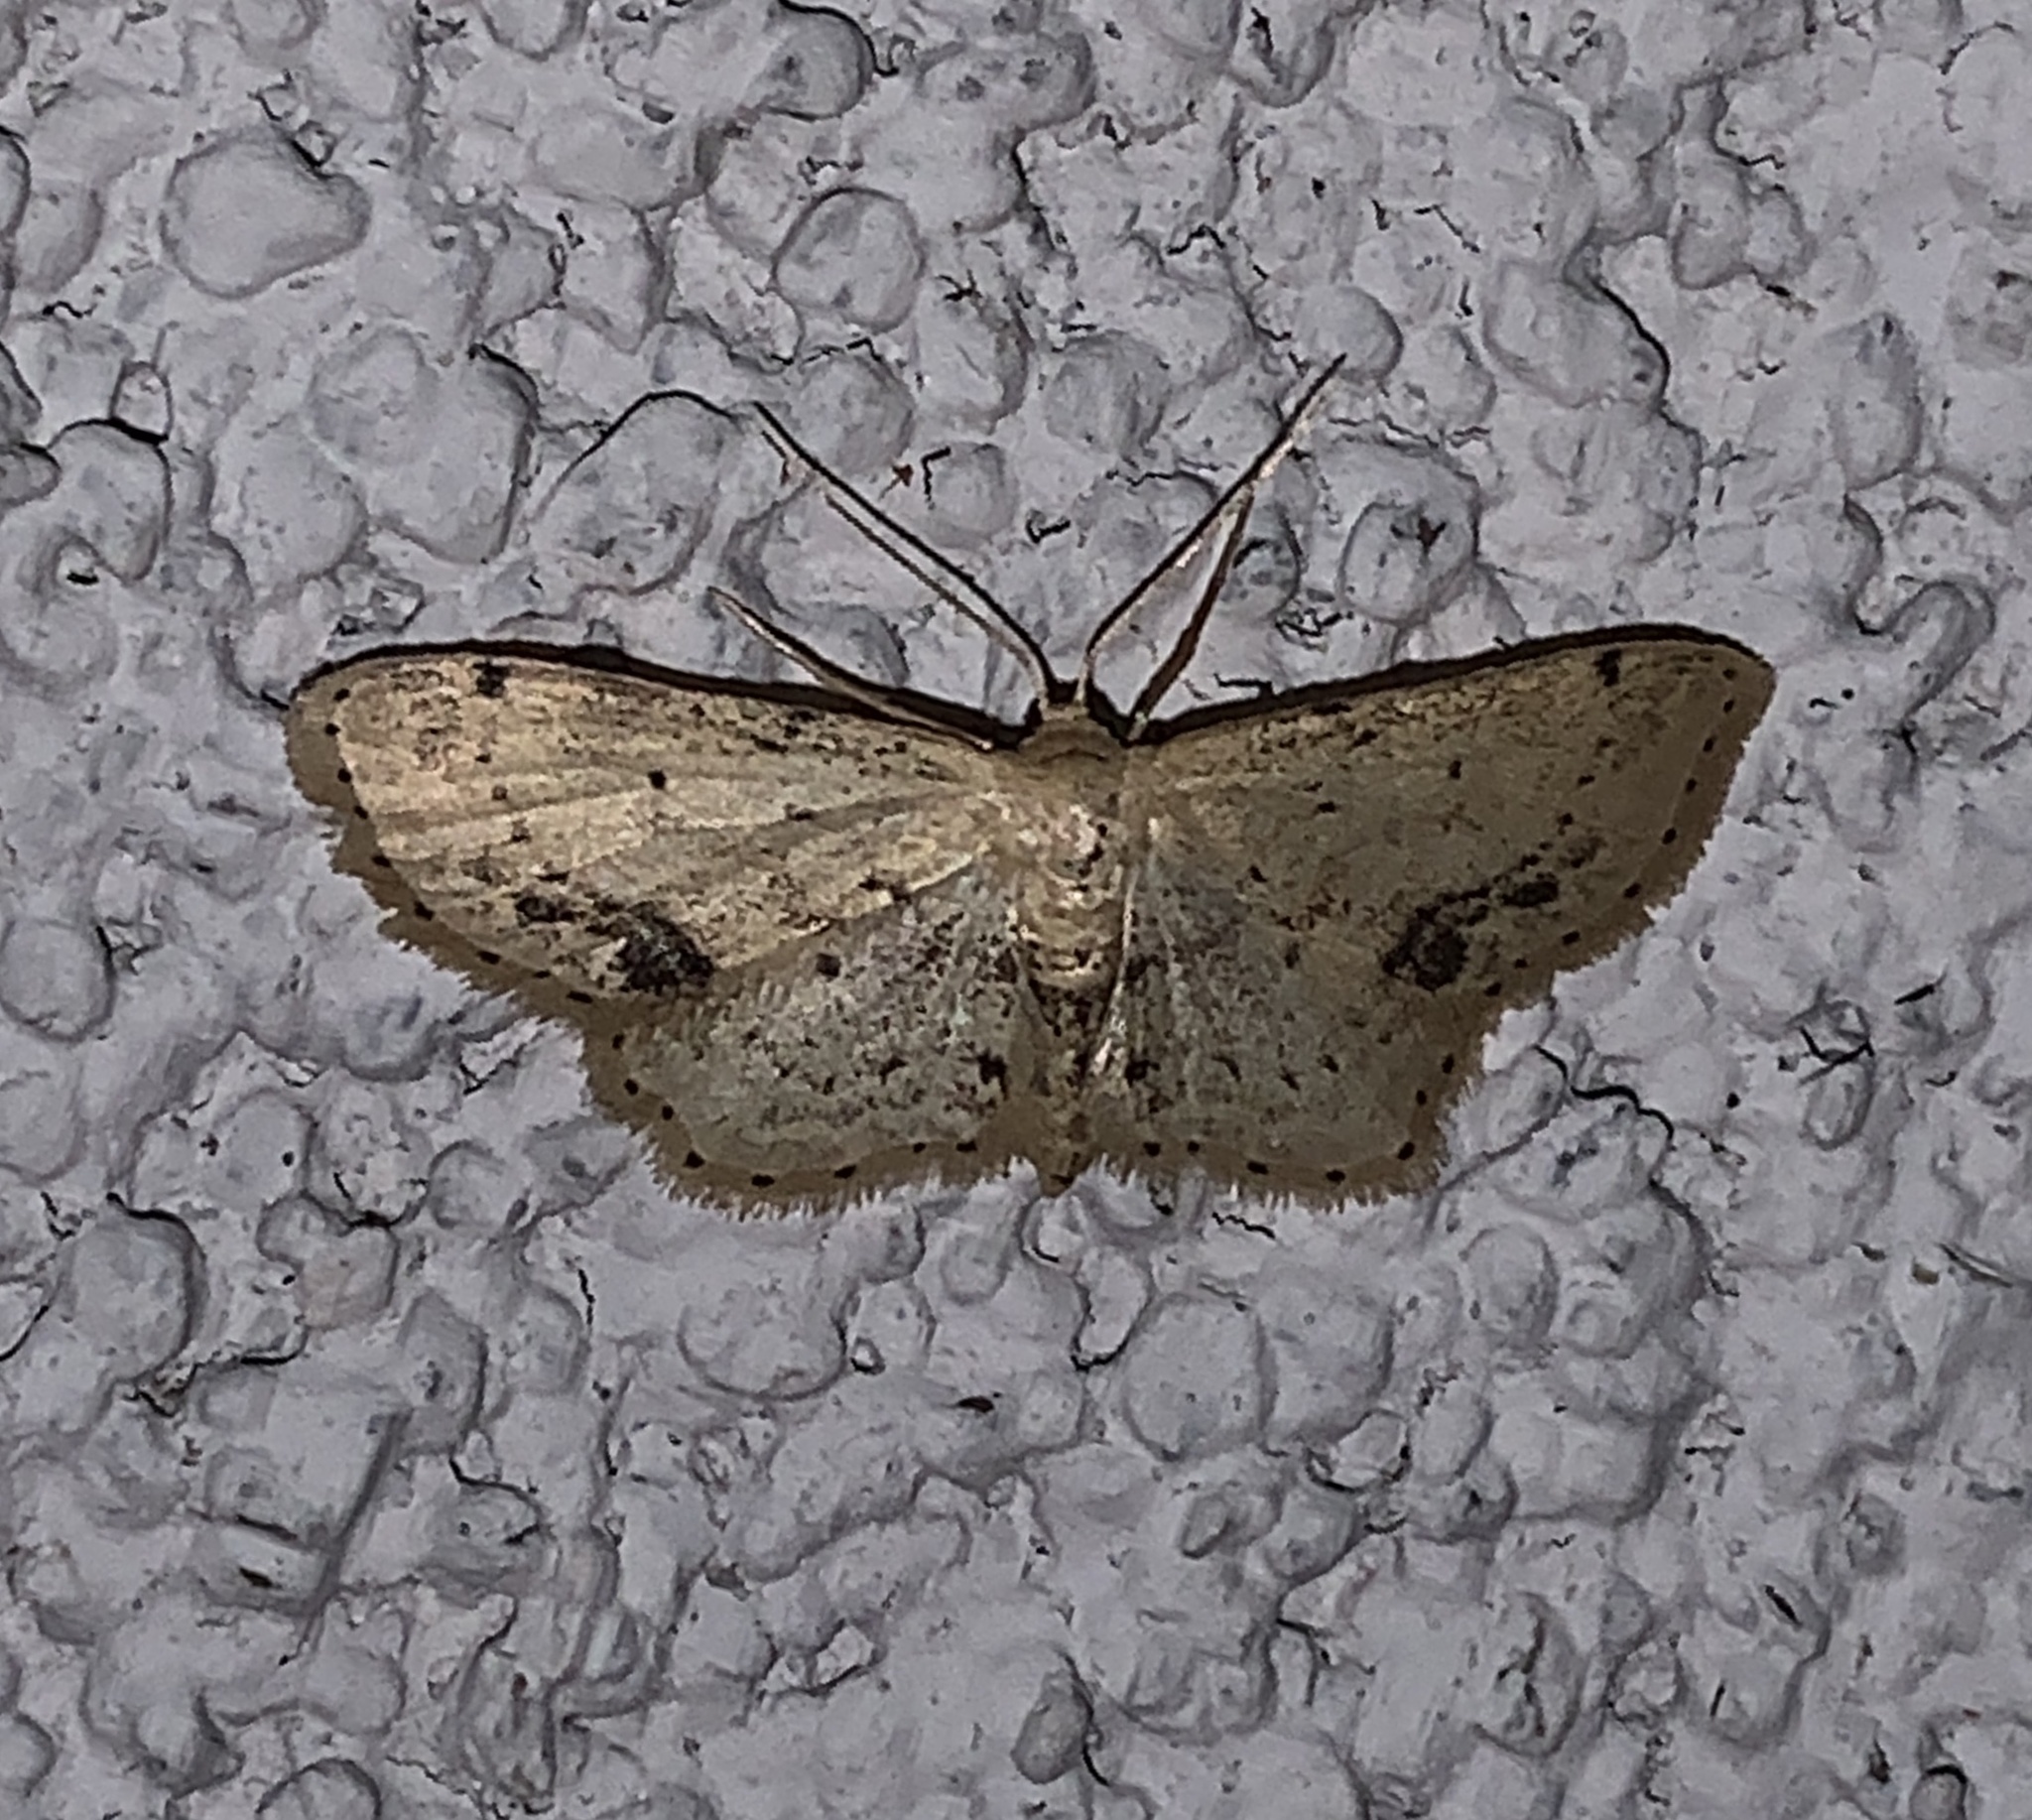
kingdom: Animalia
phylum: Arthropoda
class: Insecta
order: Lepidoptera
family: Geometridae
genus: Idaea
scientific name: Idaea dimidiata
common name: Single-dotted wave
